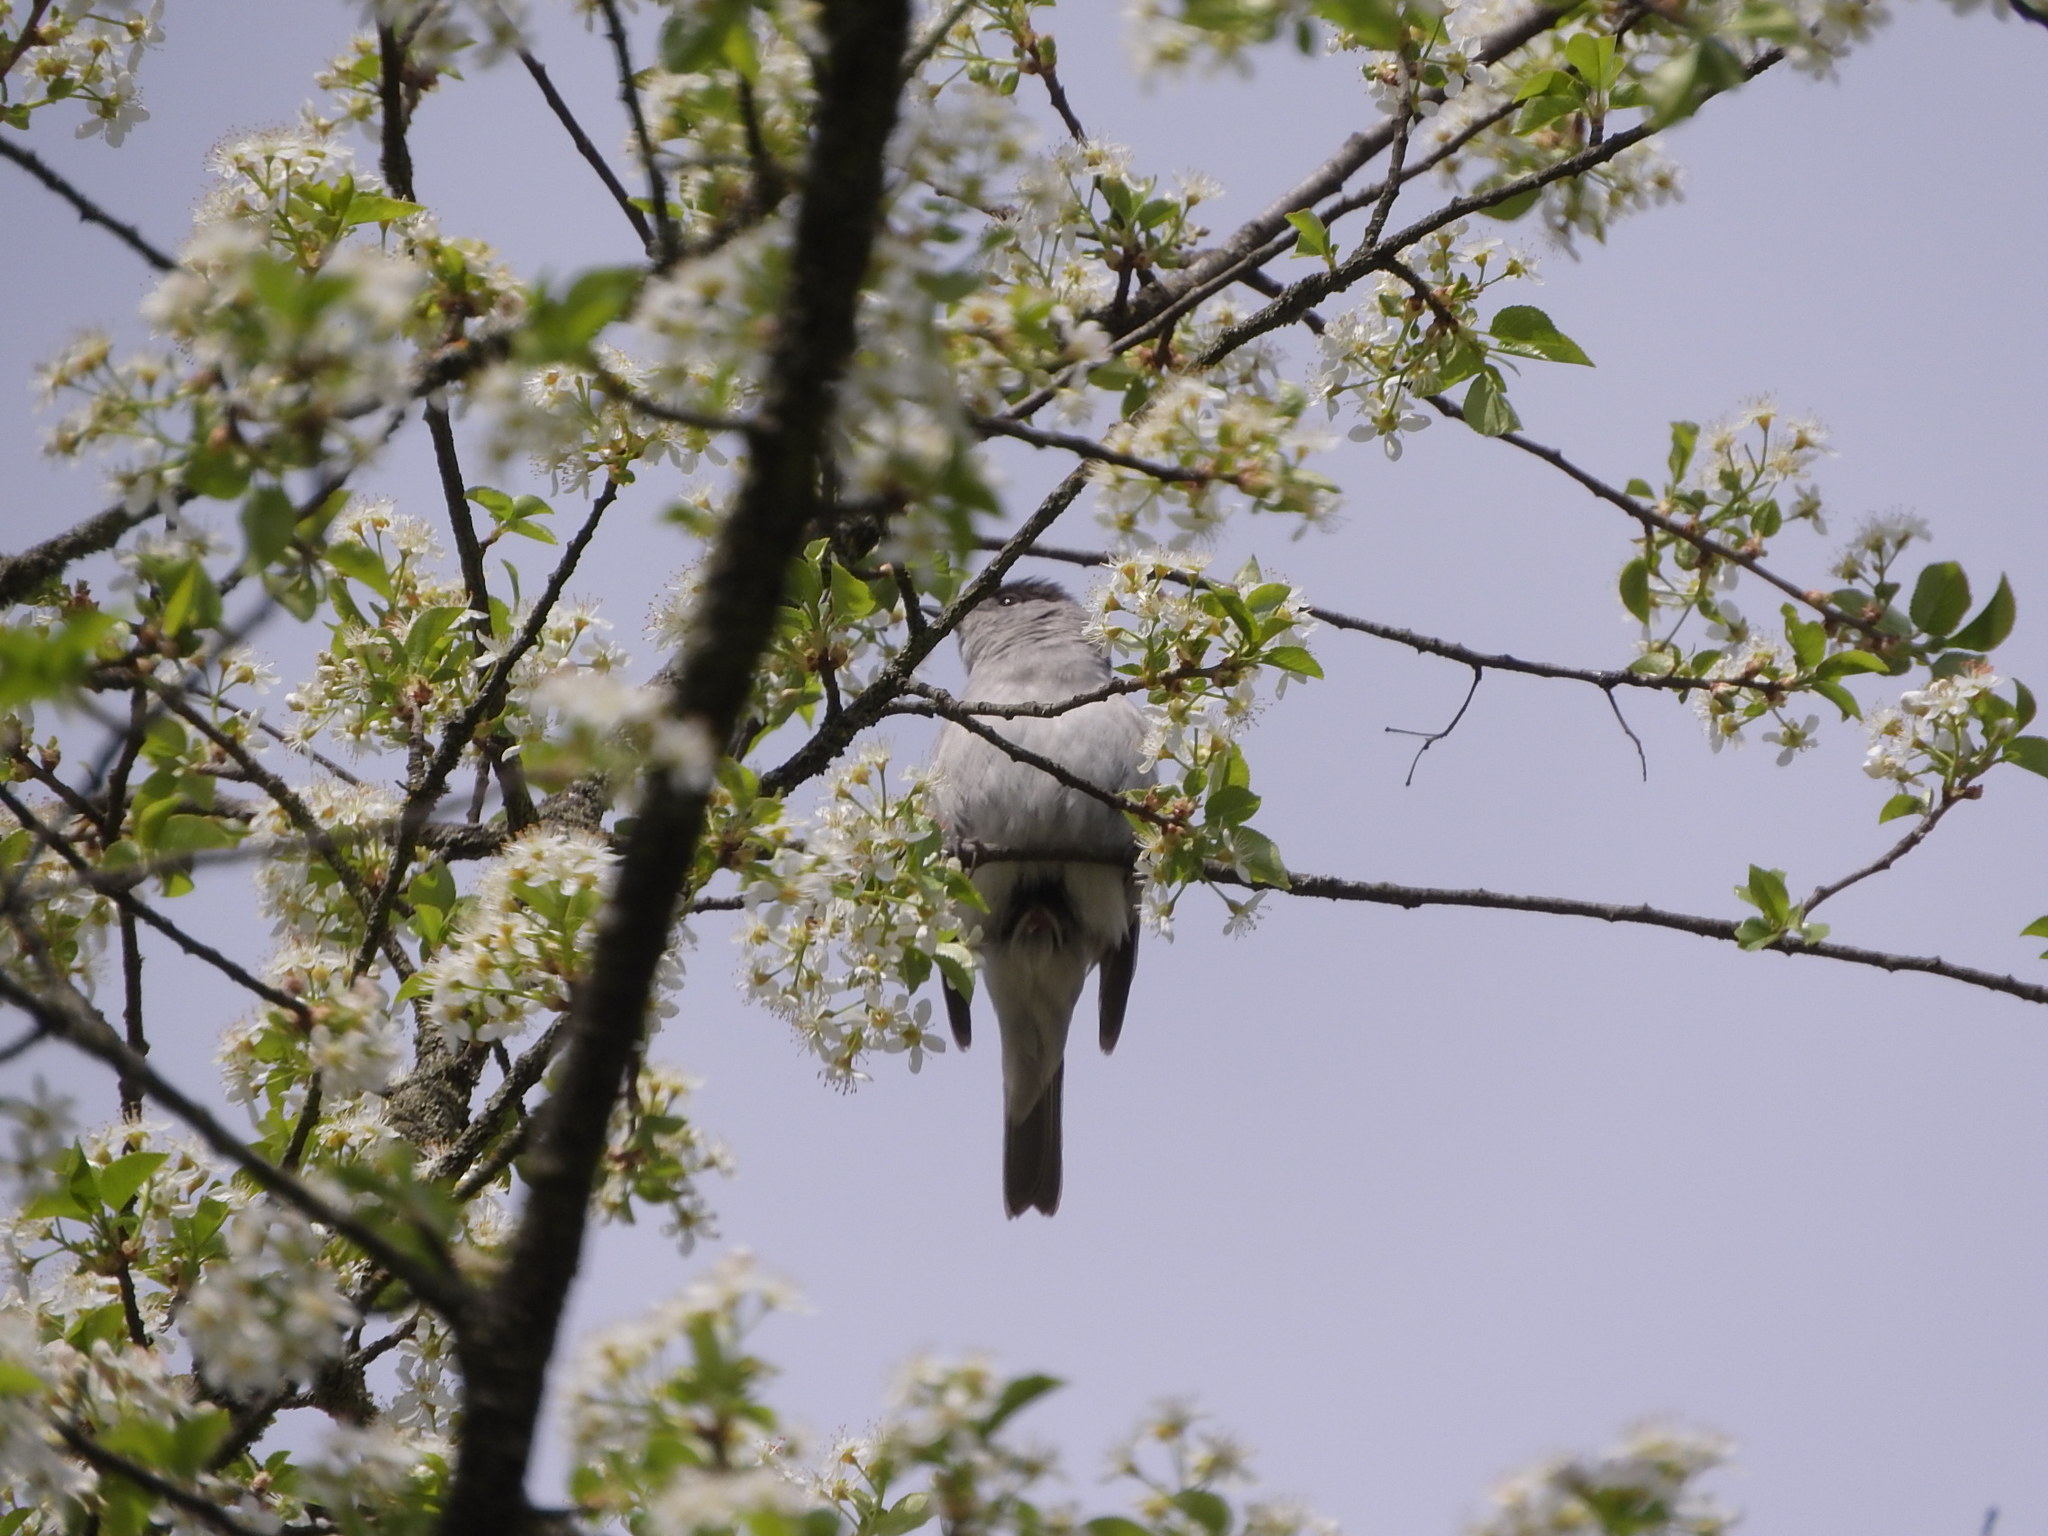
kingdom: Animalia
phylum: Chordata
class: Aves
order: Passeriformes
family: Sylviidae
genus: Sylvia
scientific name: Sylvia atricapilla
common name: Eurasian blackcap
